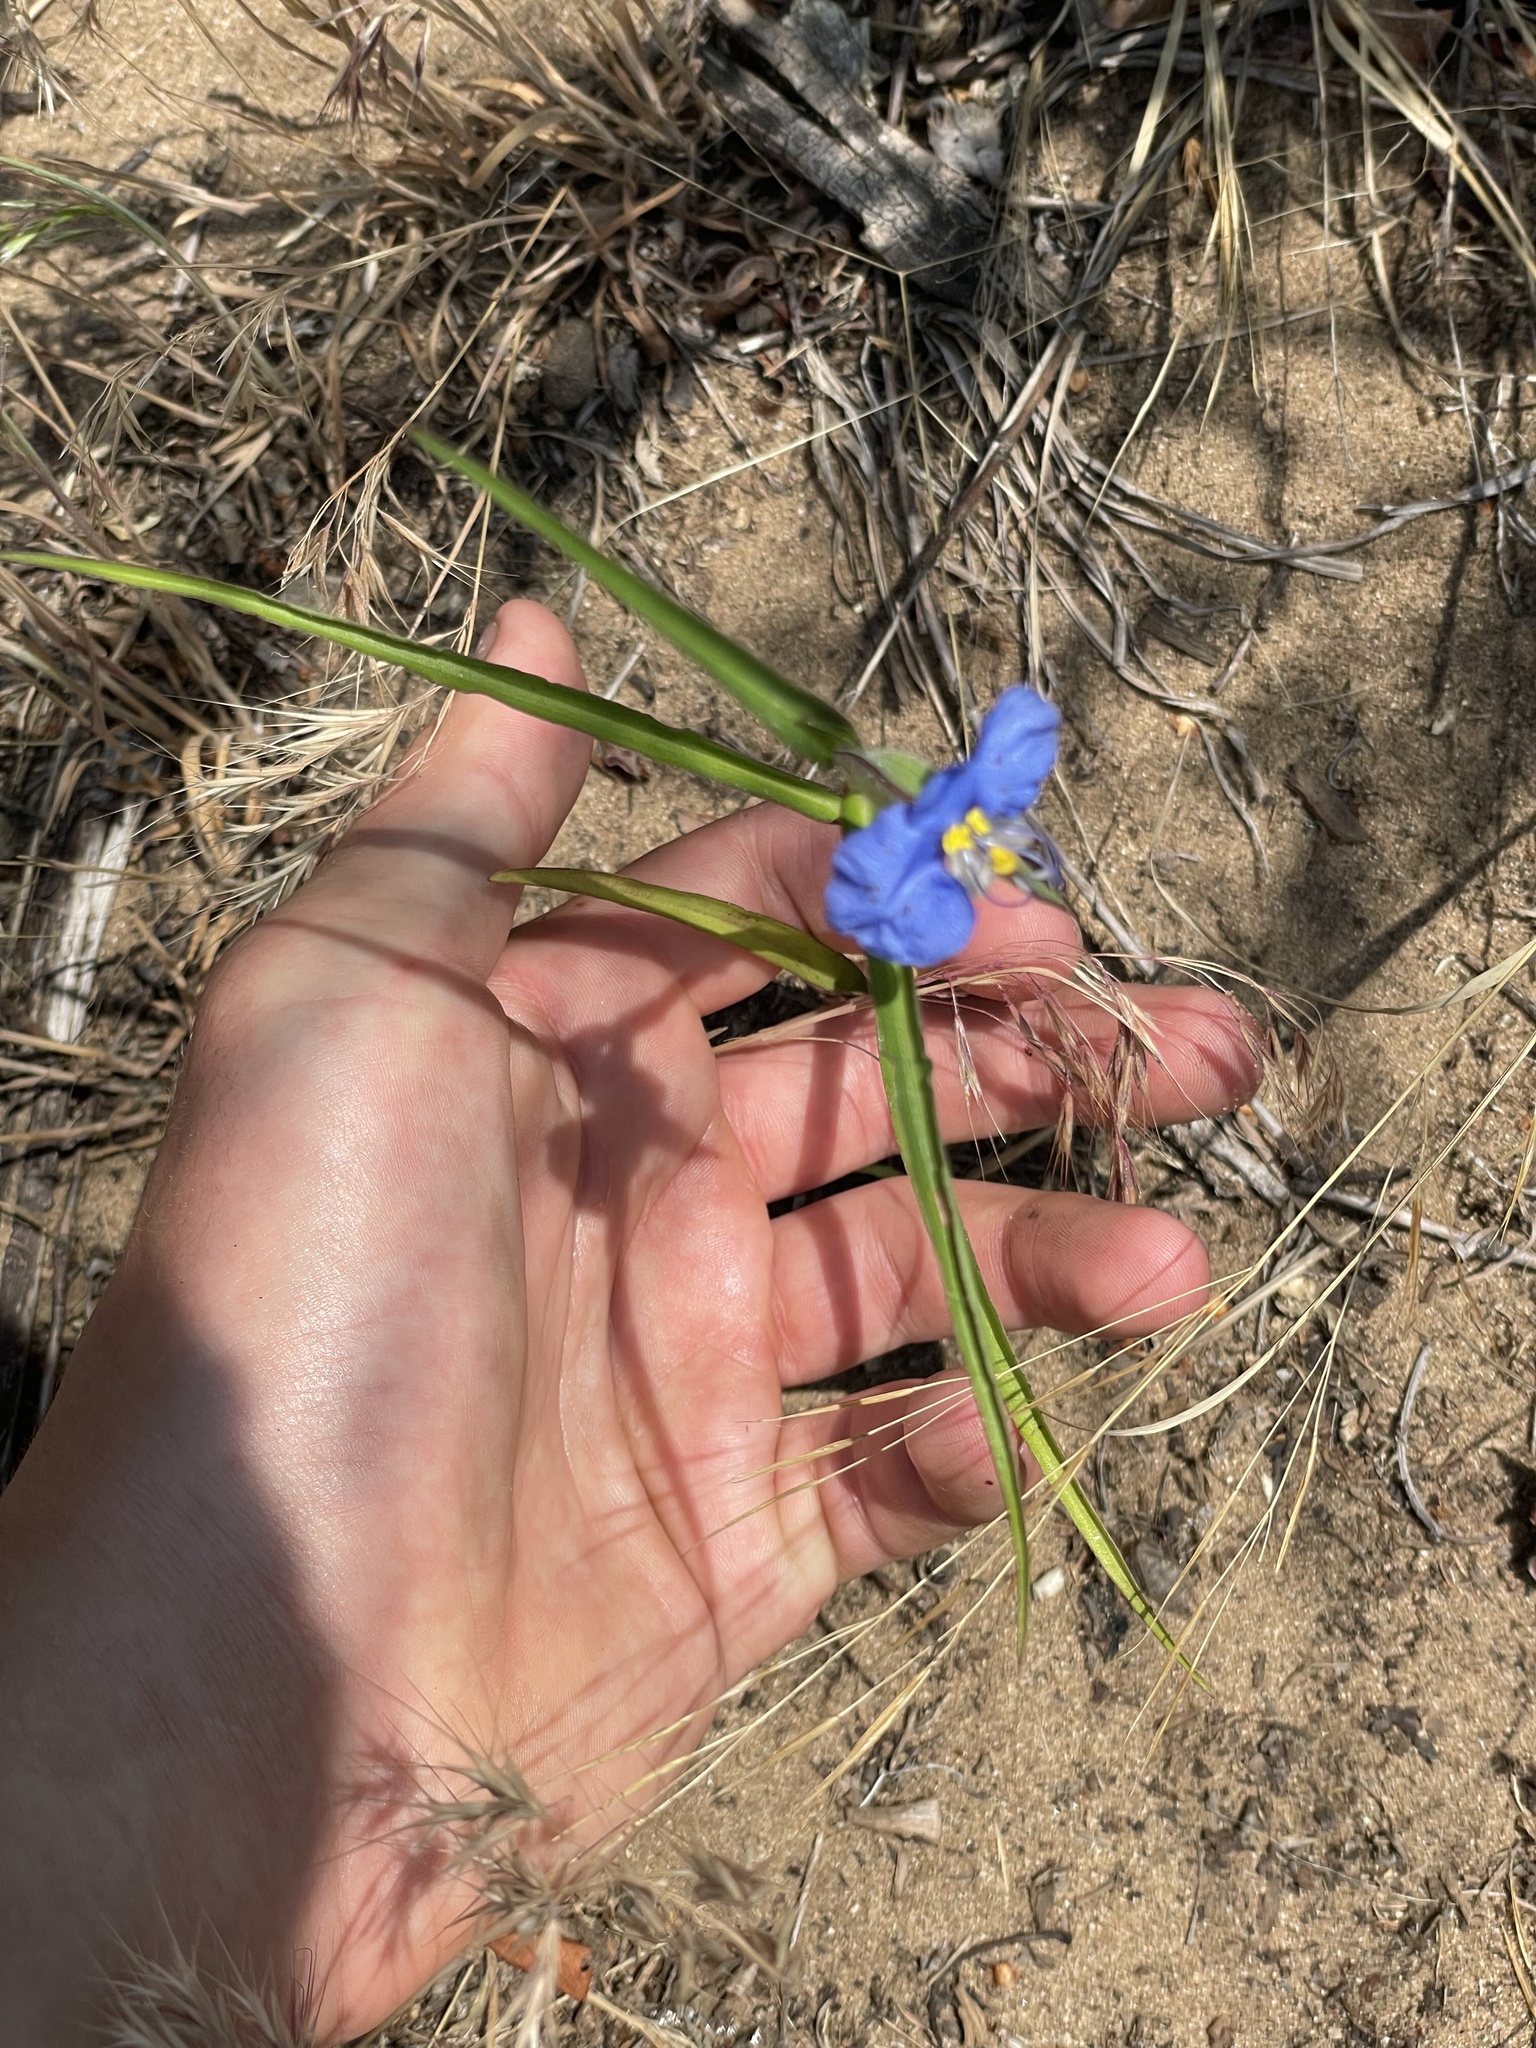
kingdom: Plantae
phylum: Tracheophyta
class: Liliopsida
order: Commelinales
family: Commelinaceae
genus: Commelina
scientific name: Commelina erecta
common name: Blousel blommetjie
